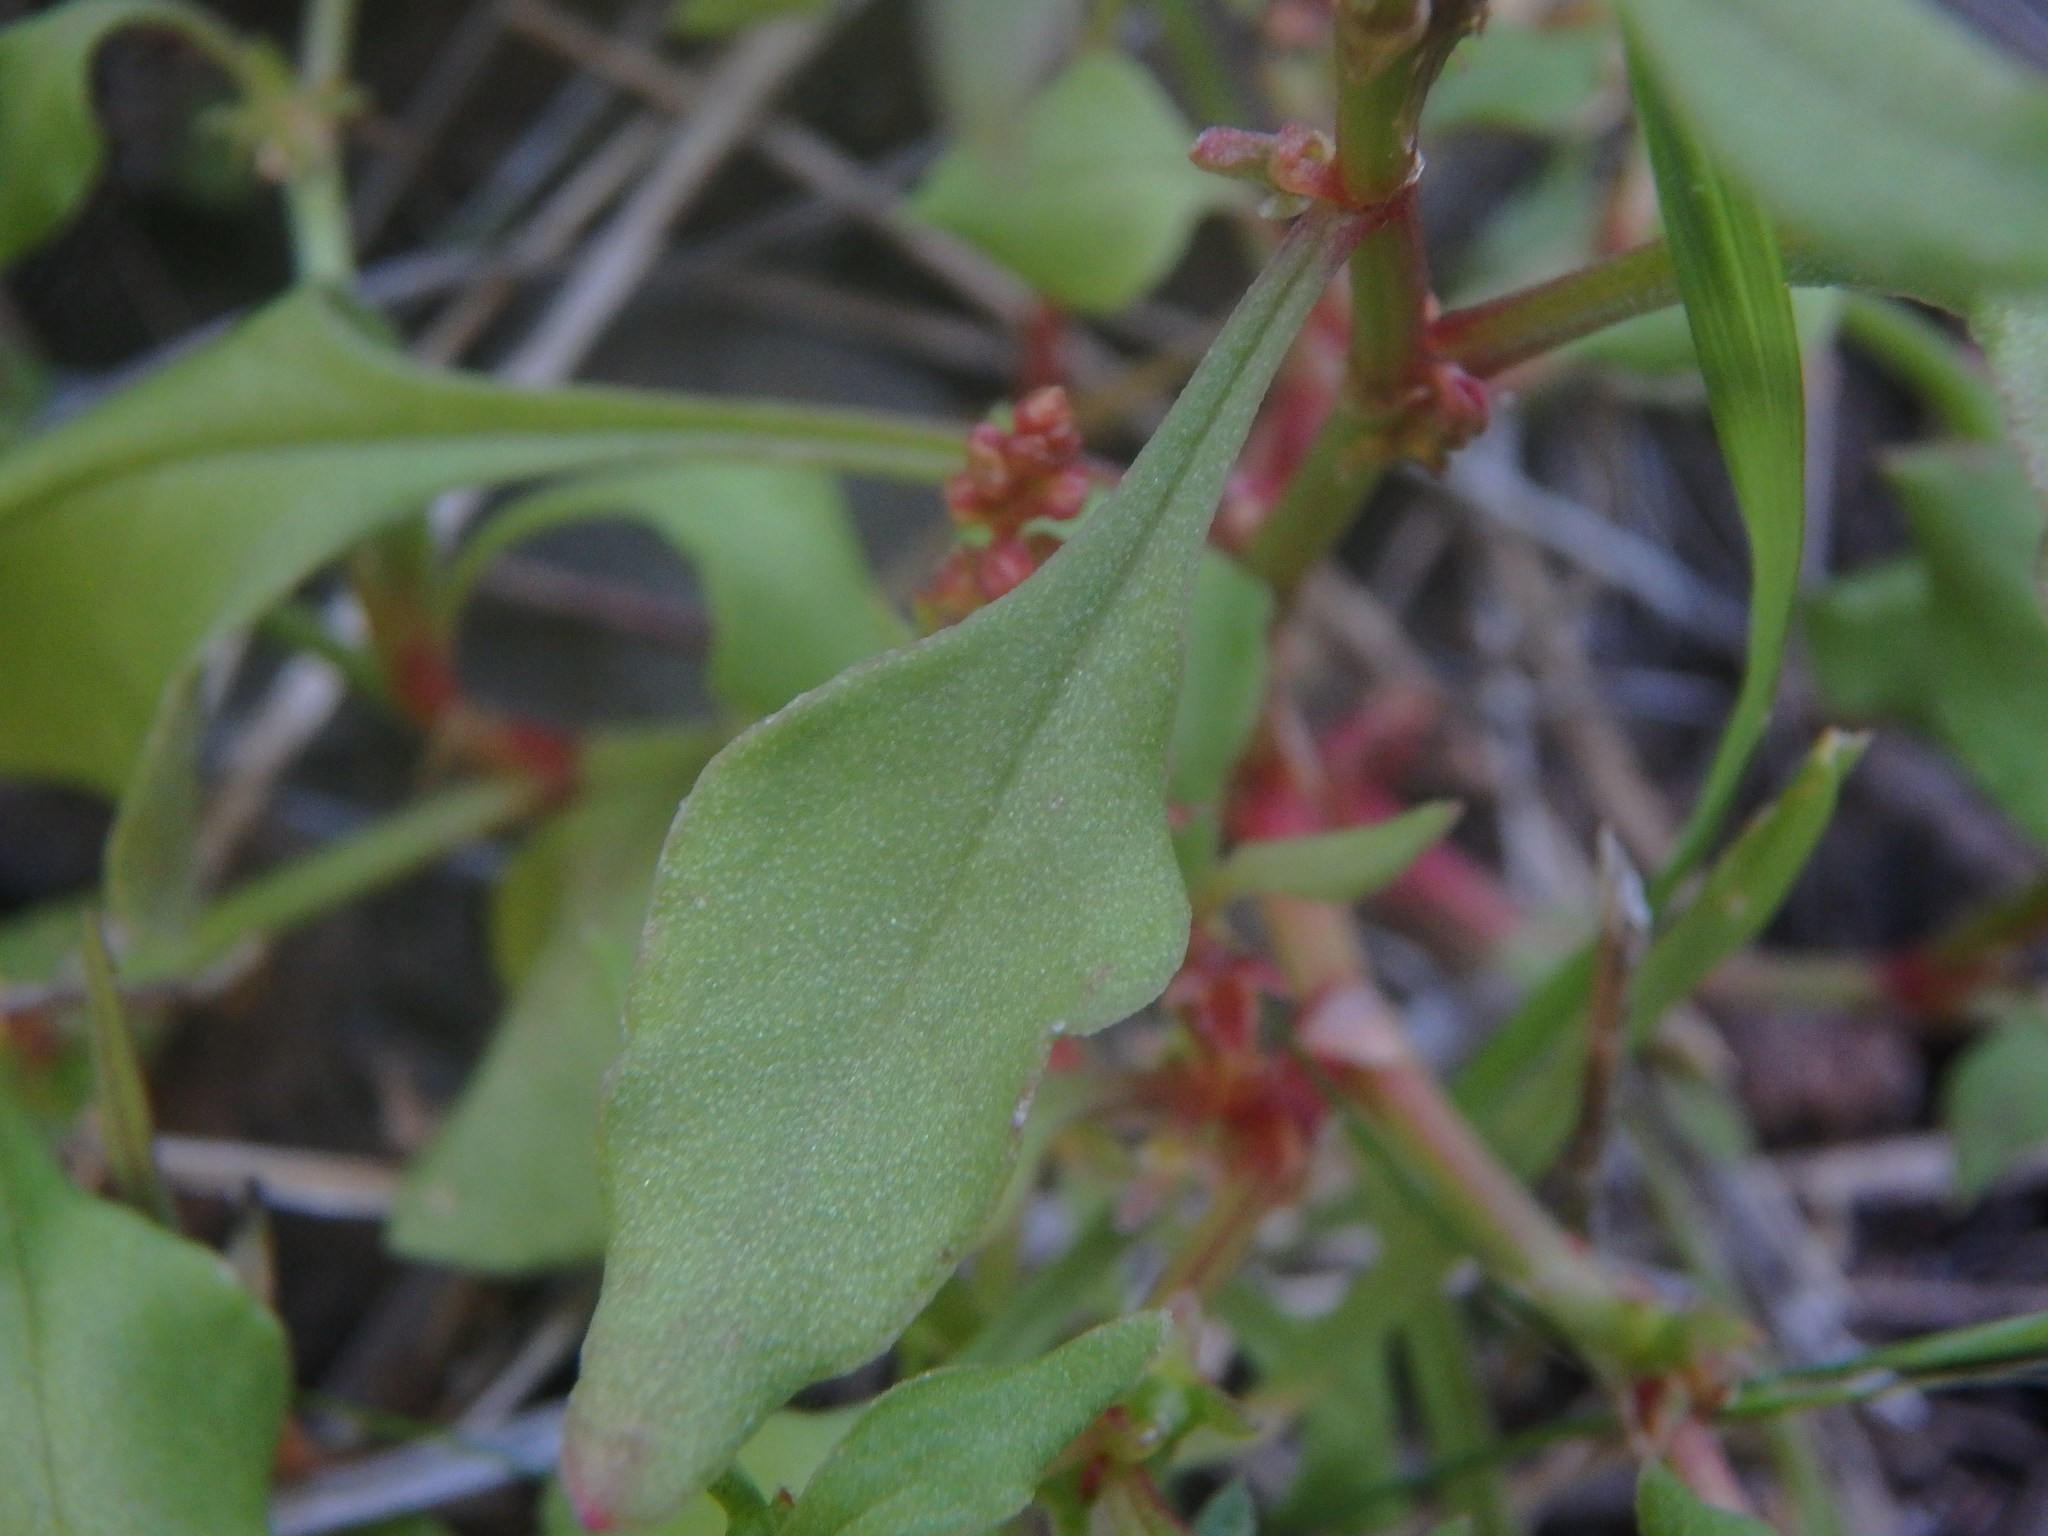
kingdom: Plantae
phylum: Tracheophyta
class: Magnoliopsida
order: Caryophyllales
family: Polygonaceae
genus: Rumex
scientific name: Rumex bucephalophorus
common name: Red dock
